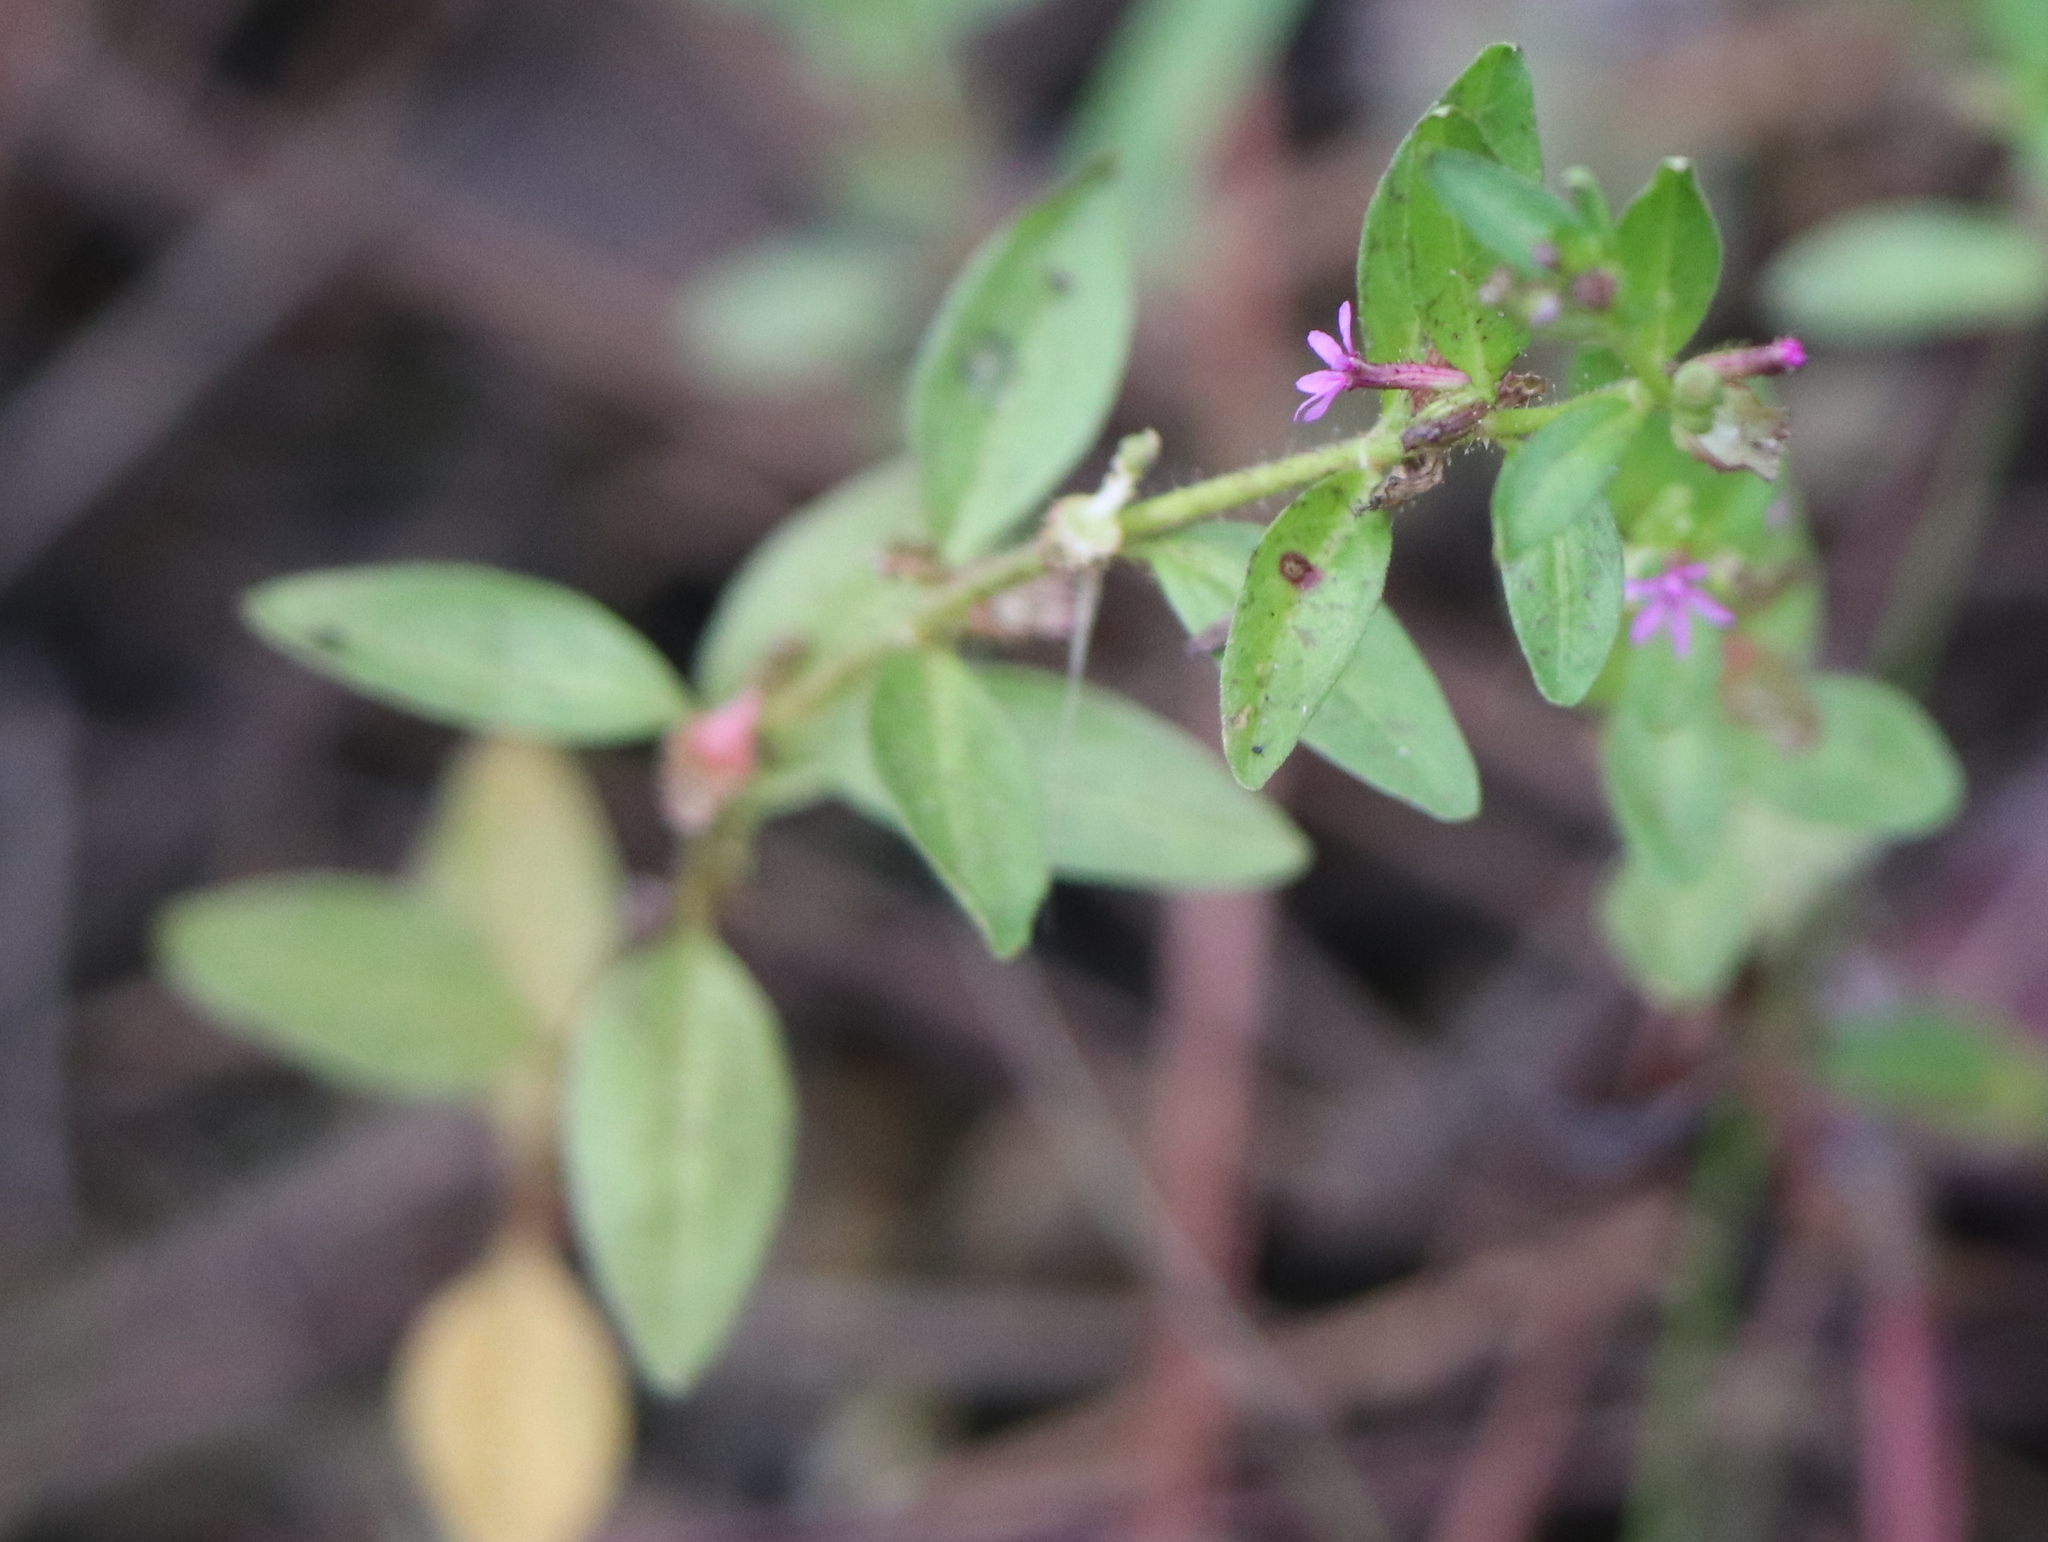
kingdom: Plantae
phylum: Tracheophyta
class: Magnoliopsida
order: Myrtales
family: Lythraceae
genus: Cuphea
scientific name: Cuphea carthagenensis
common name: Colombian waxweed
